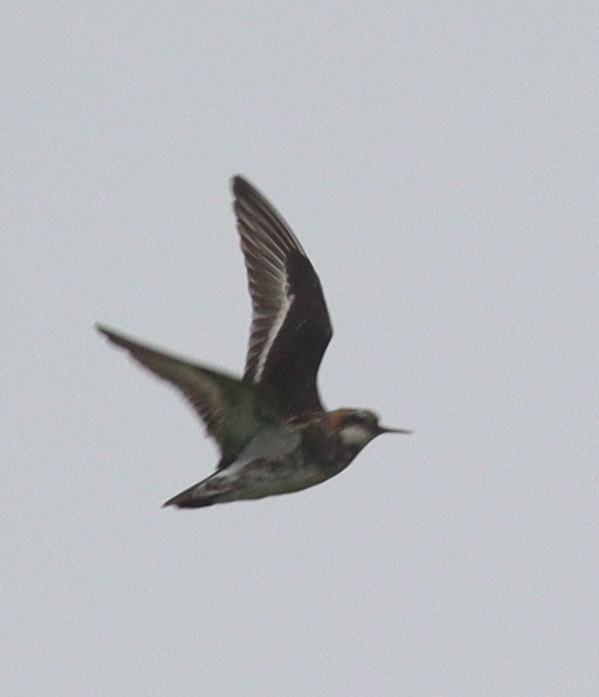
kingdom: Animalia
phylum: Chordata
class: Aves
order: Charadriiformes
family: Scolopacidae
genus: Phalaropus
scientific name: Phalaropus lobatus
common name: Red-necked phalarope
